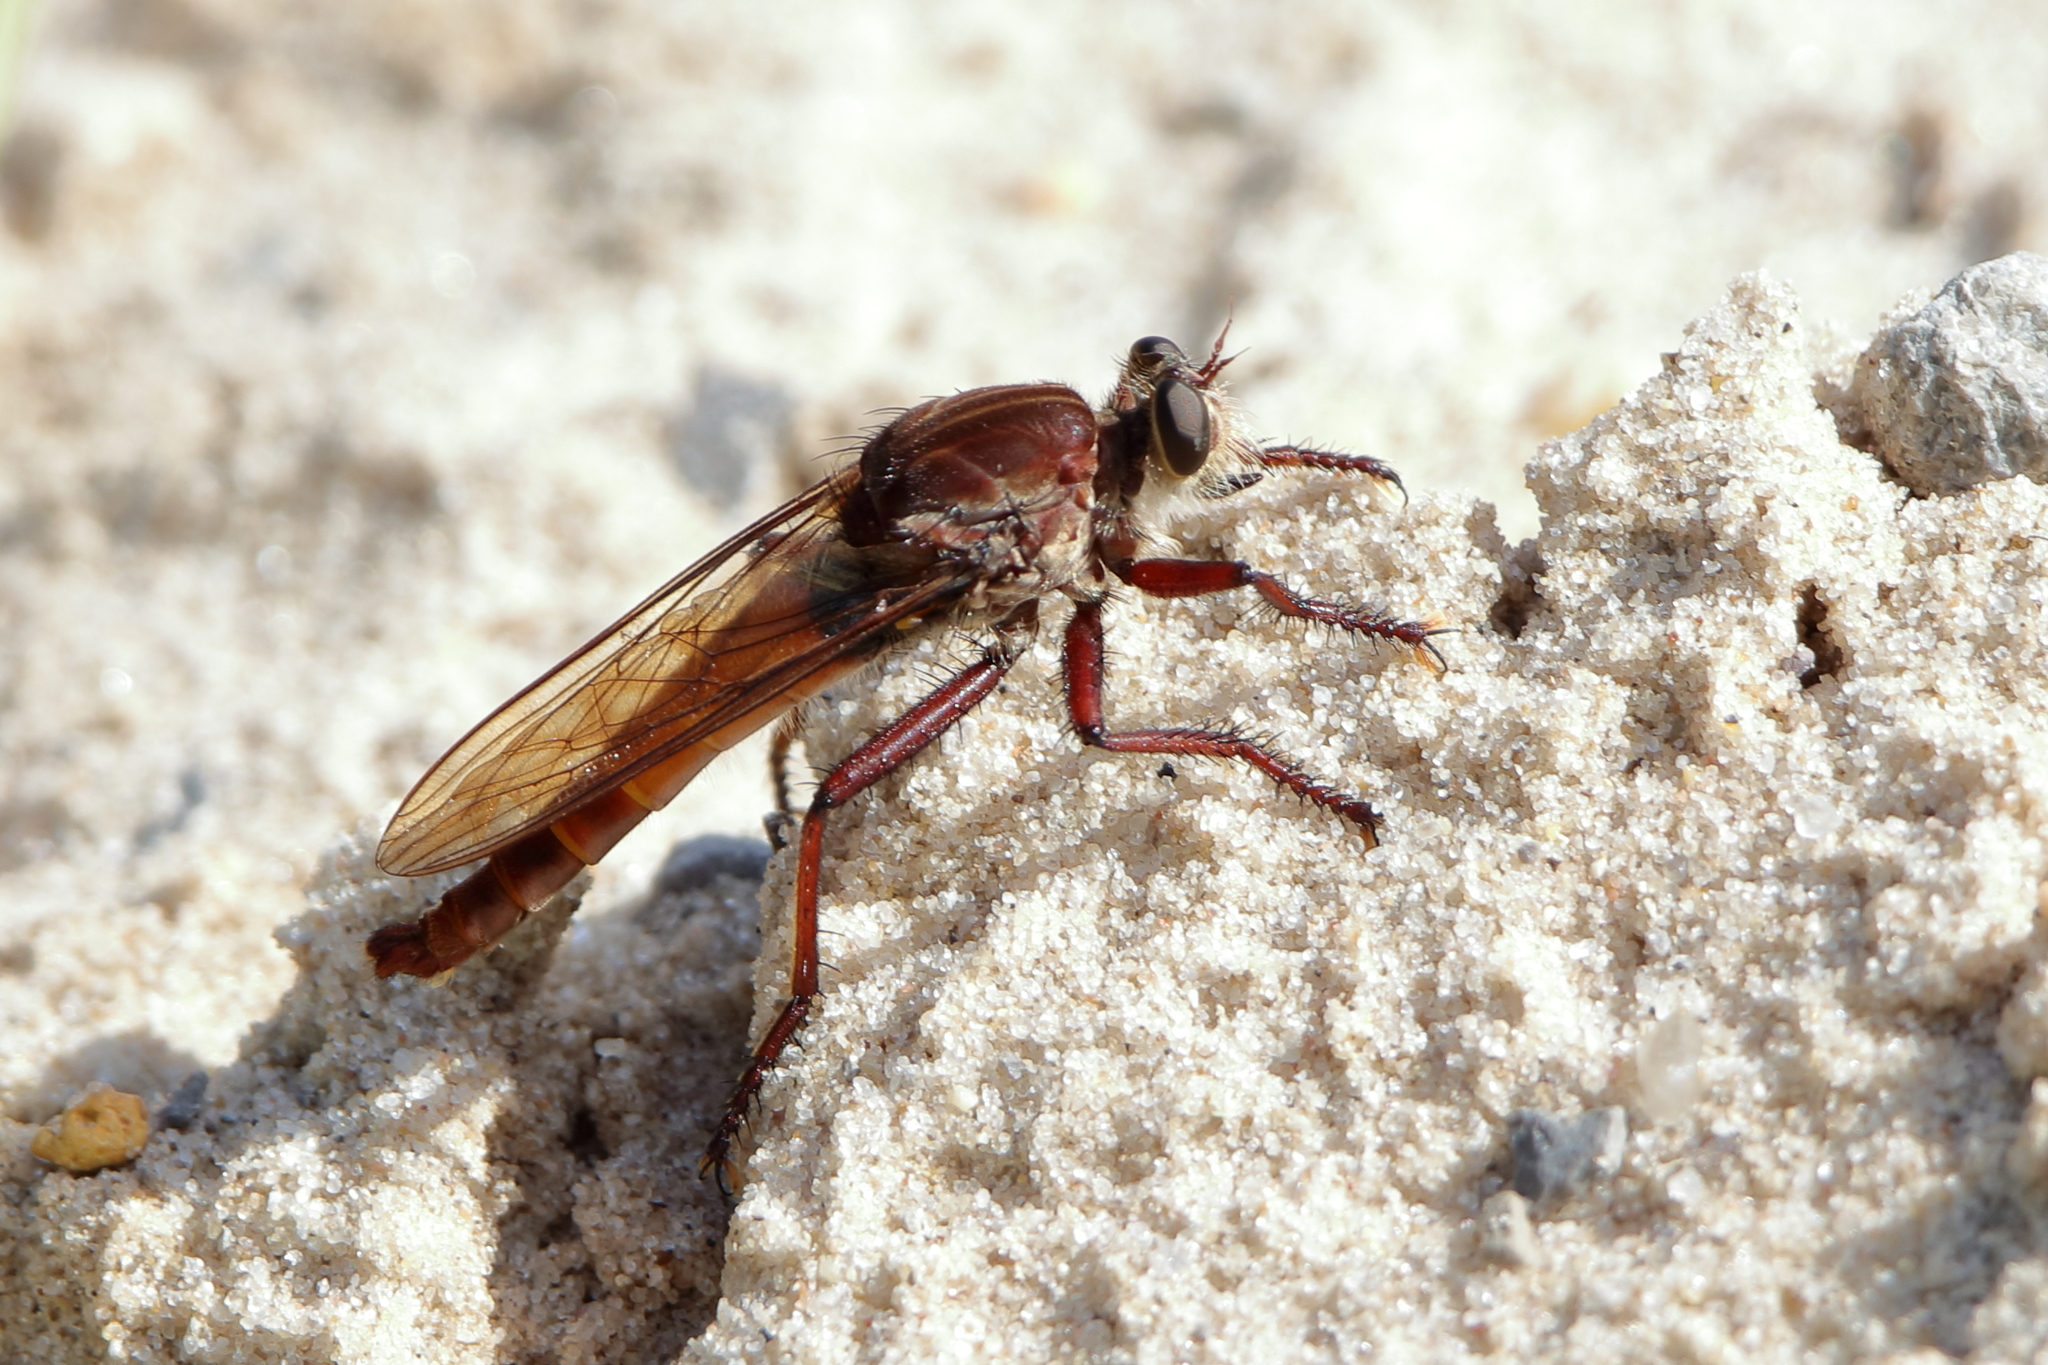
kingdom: Animalia
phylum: Arthropoda
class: Insecta
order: Diptera
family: Asilidae
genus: Proctacanthus
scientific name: Proctacanthus rufus
